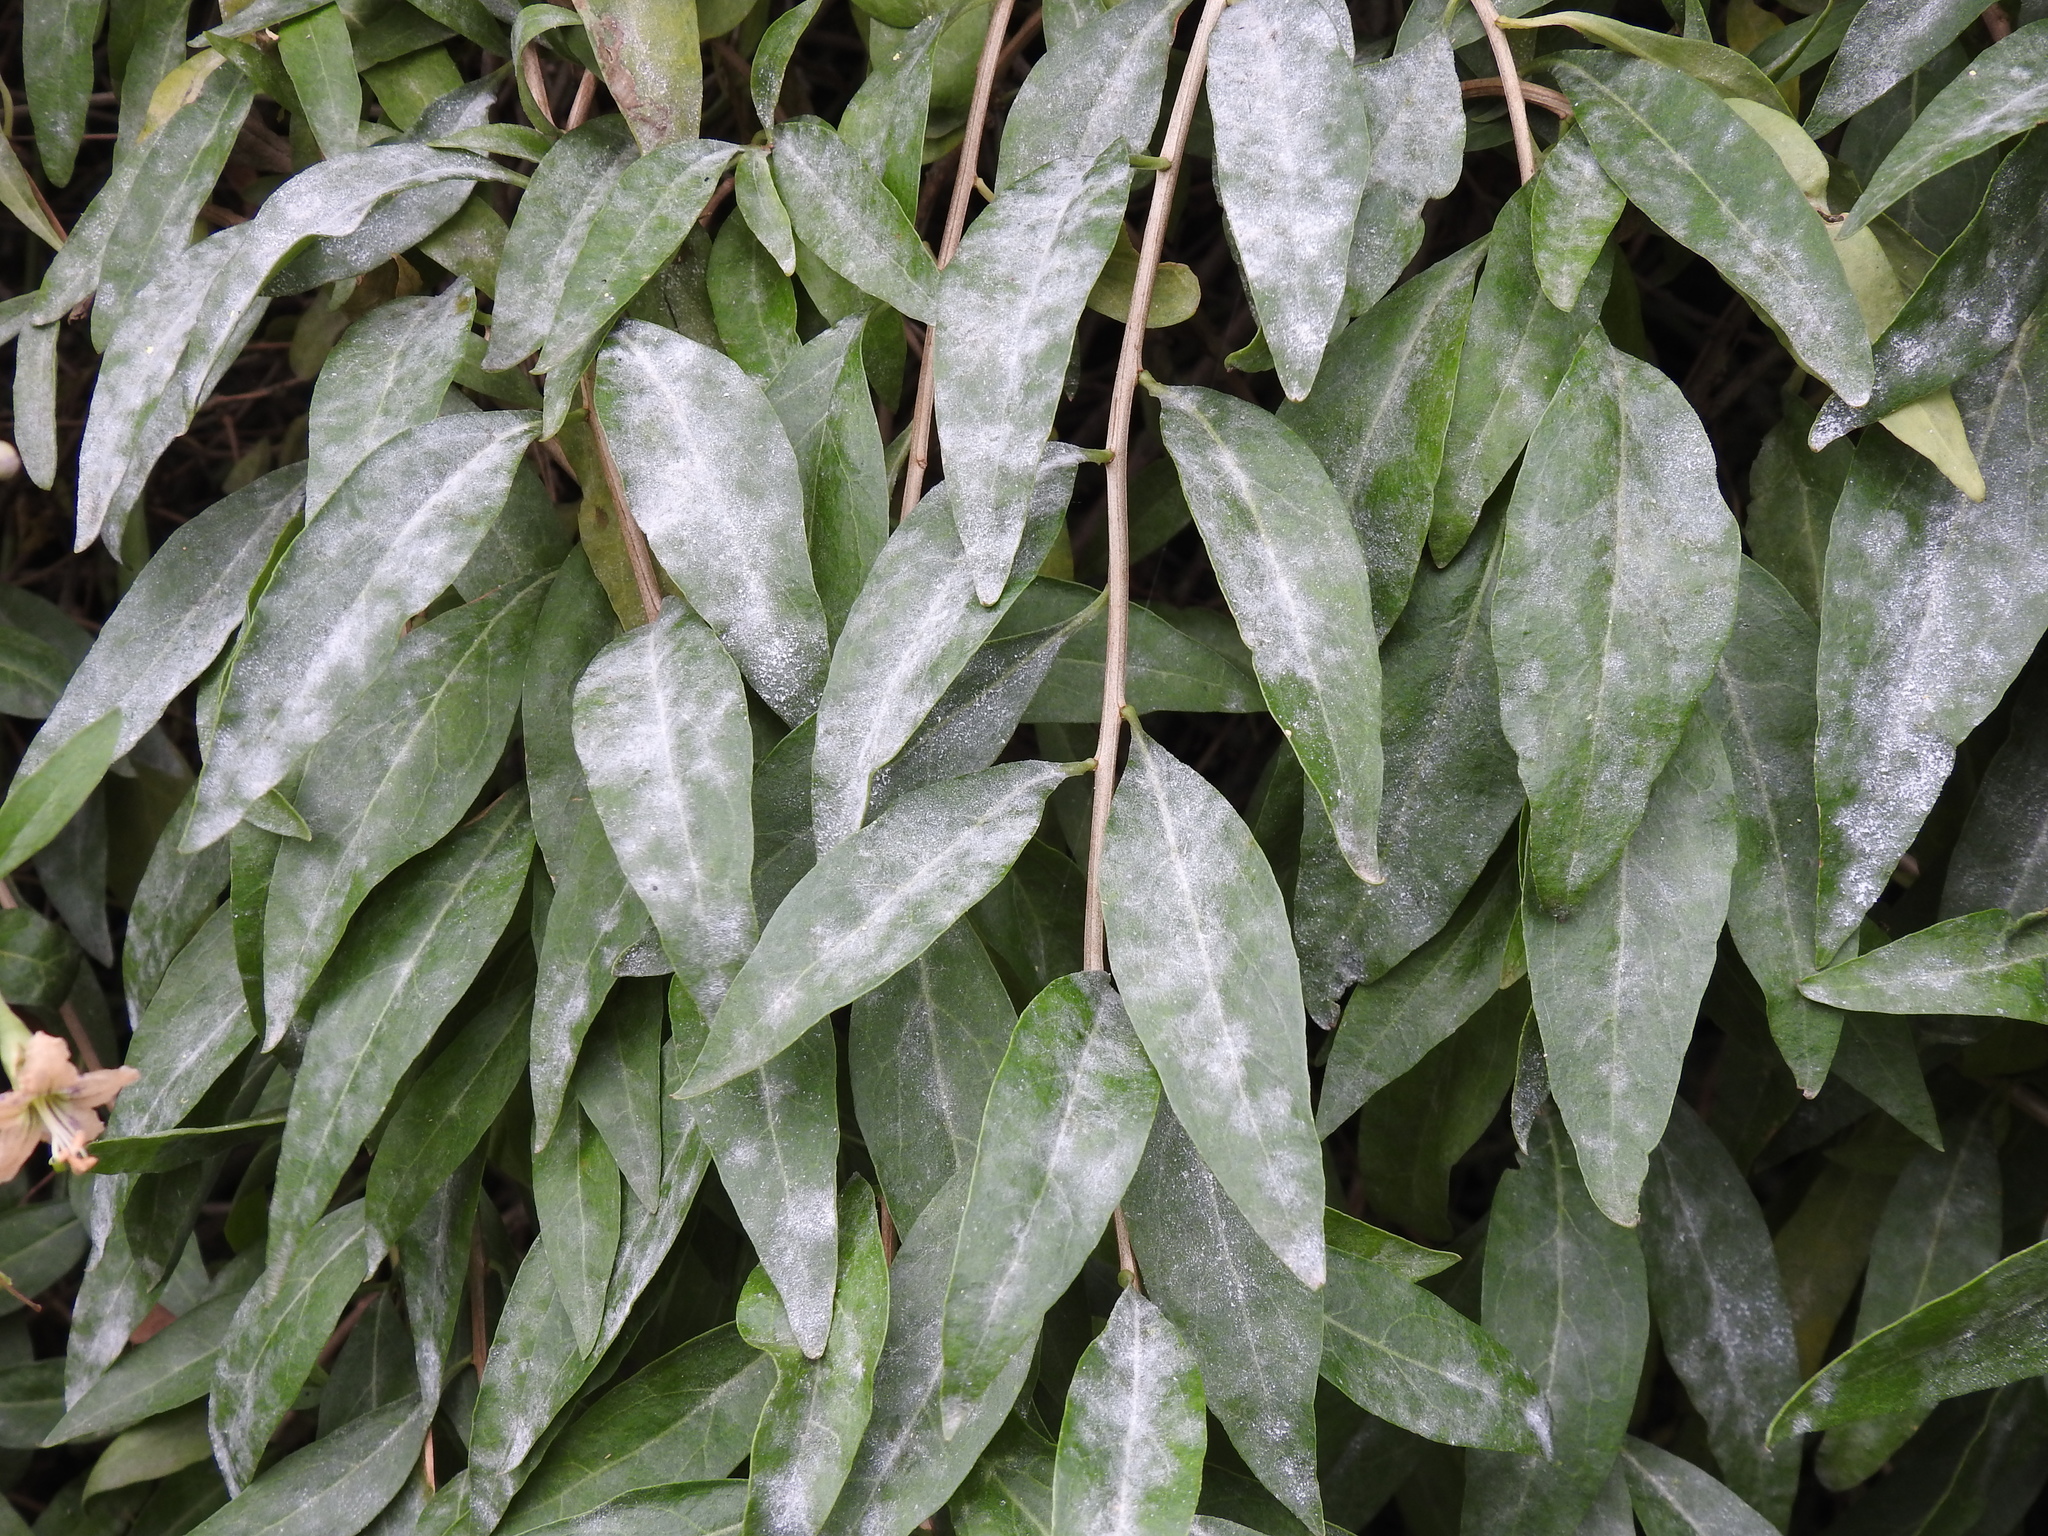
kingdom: Fungi
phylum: Ascomycota
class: Leotiomycetes
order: Helotiales
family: Erysiphaceae
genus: Erysiphe
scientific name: Erysiphe mougeotii
